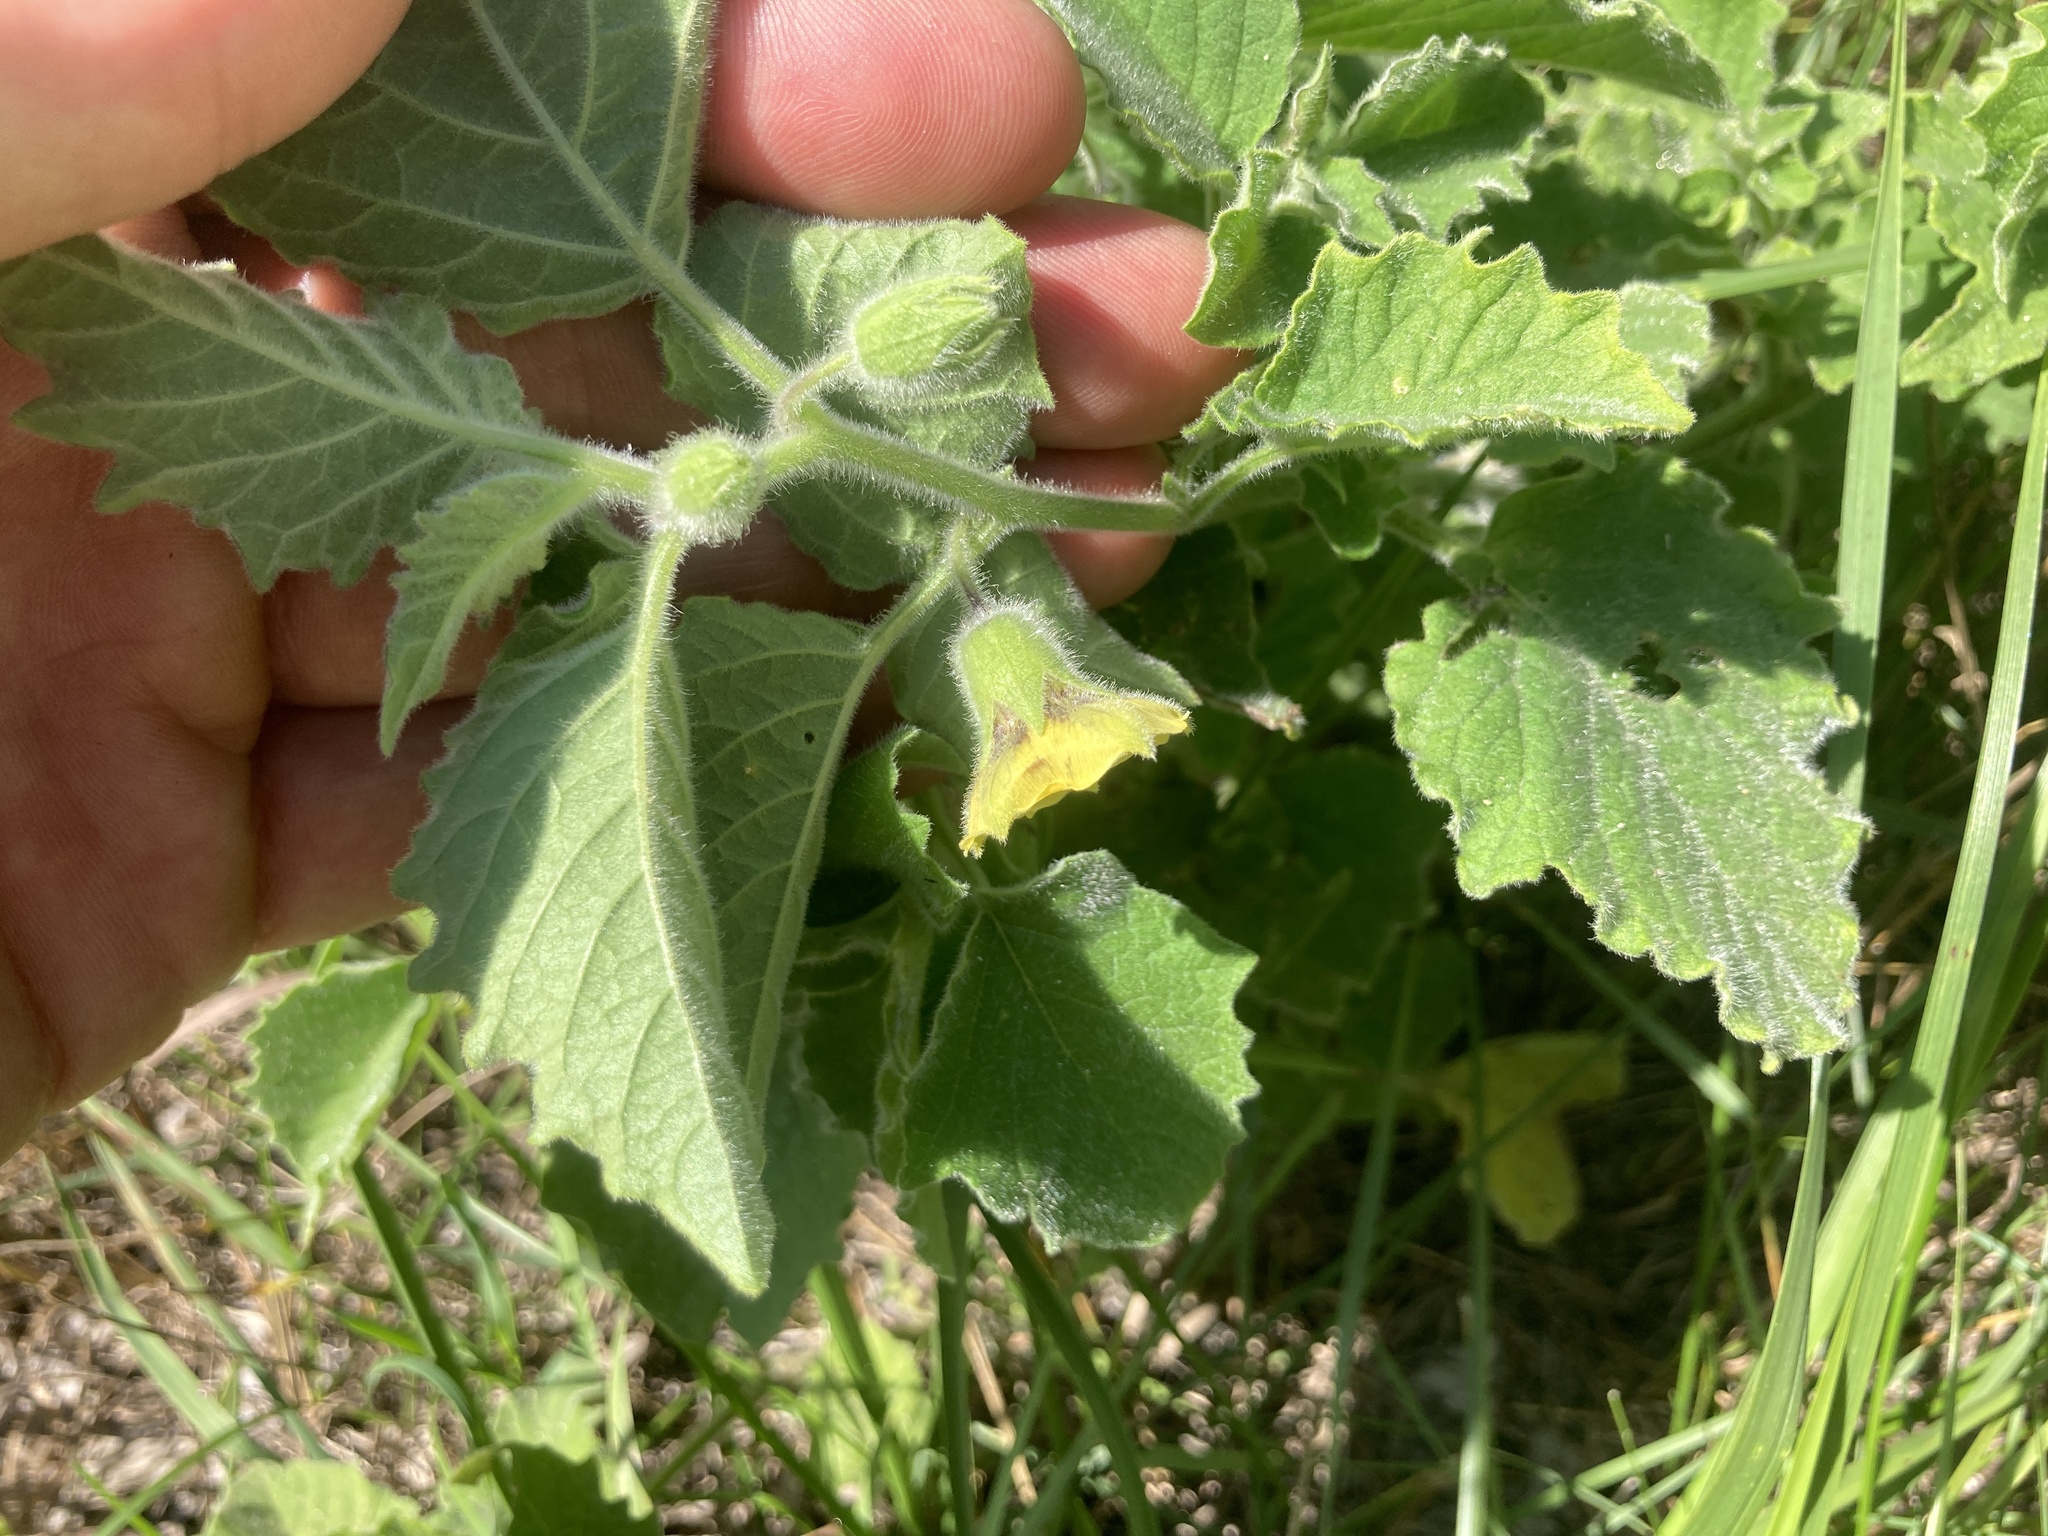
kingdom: Plantae
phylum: Tracheophyta
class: Magnoliopsida
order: Solanales
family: Solanaceae
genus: Physalis
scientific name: Physalis heterophylla
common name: Clammy ground-cherry
